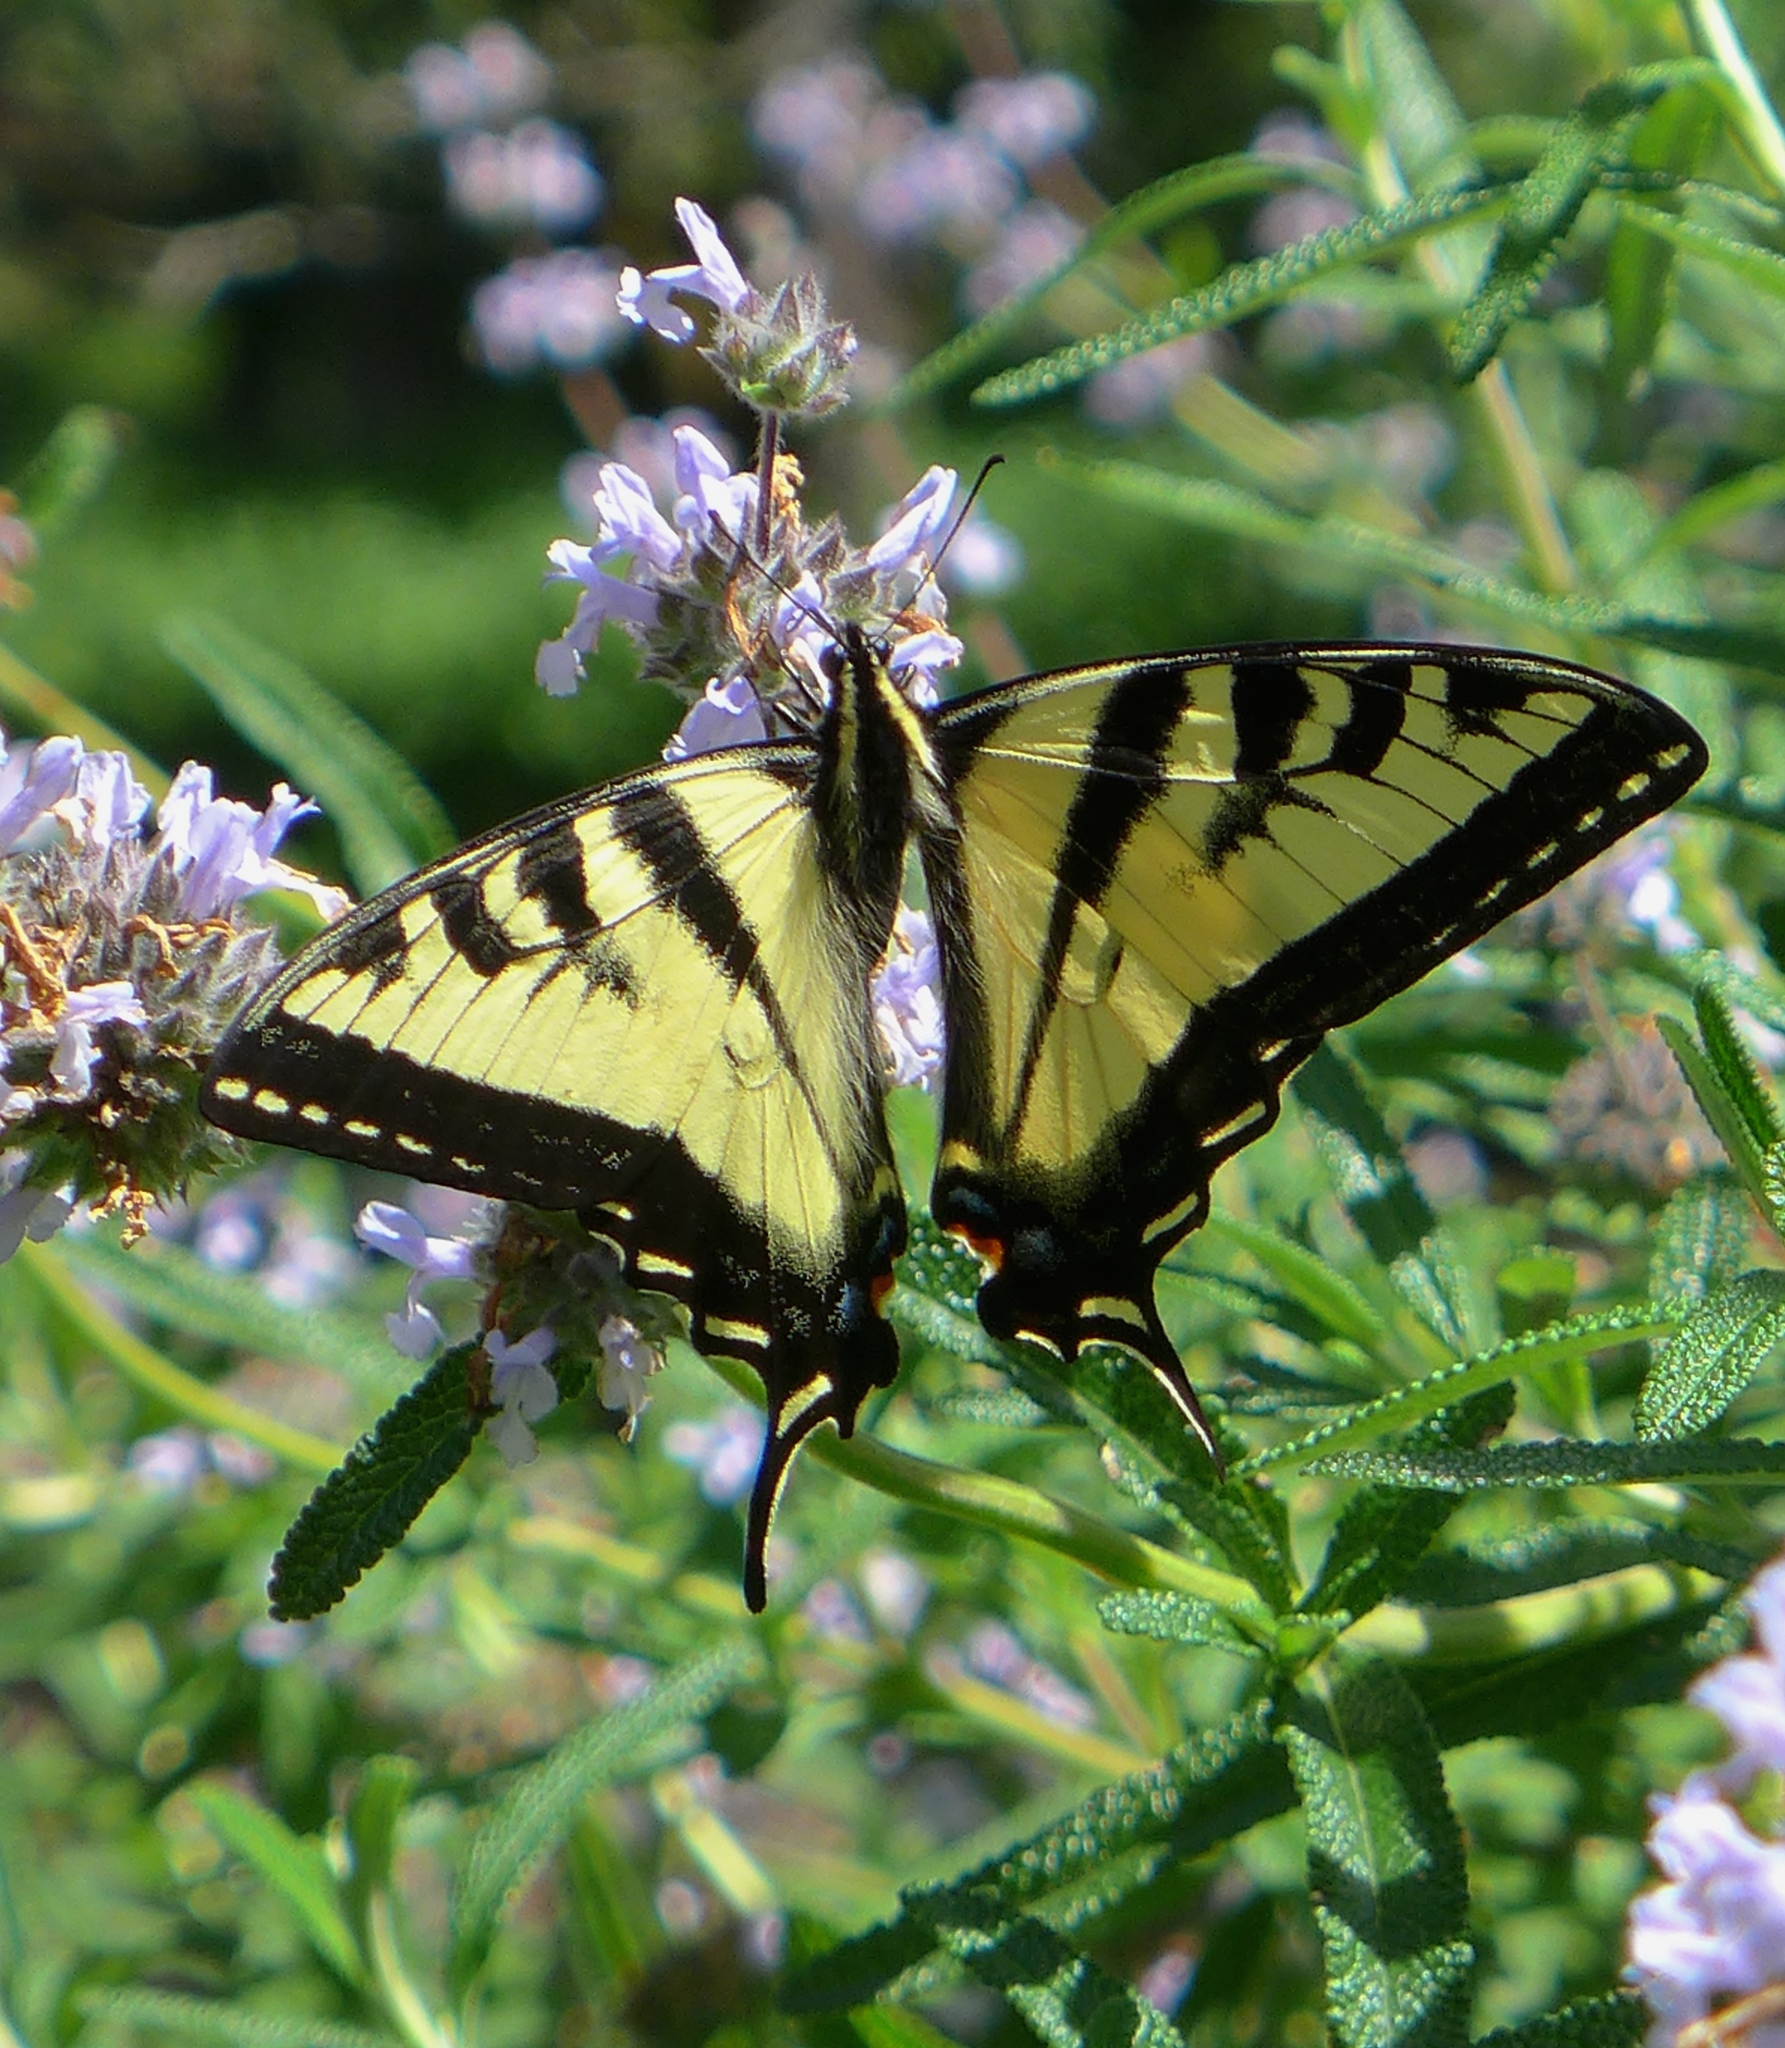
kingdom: Animalia
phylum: Arthropoda
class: Insecta
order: Lepidoptera
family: Papilionidae
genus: Papilio
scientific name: Papilio rutulus
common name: Western tiger swallowtail
